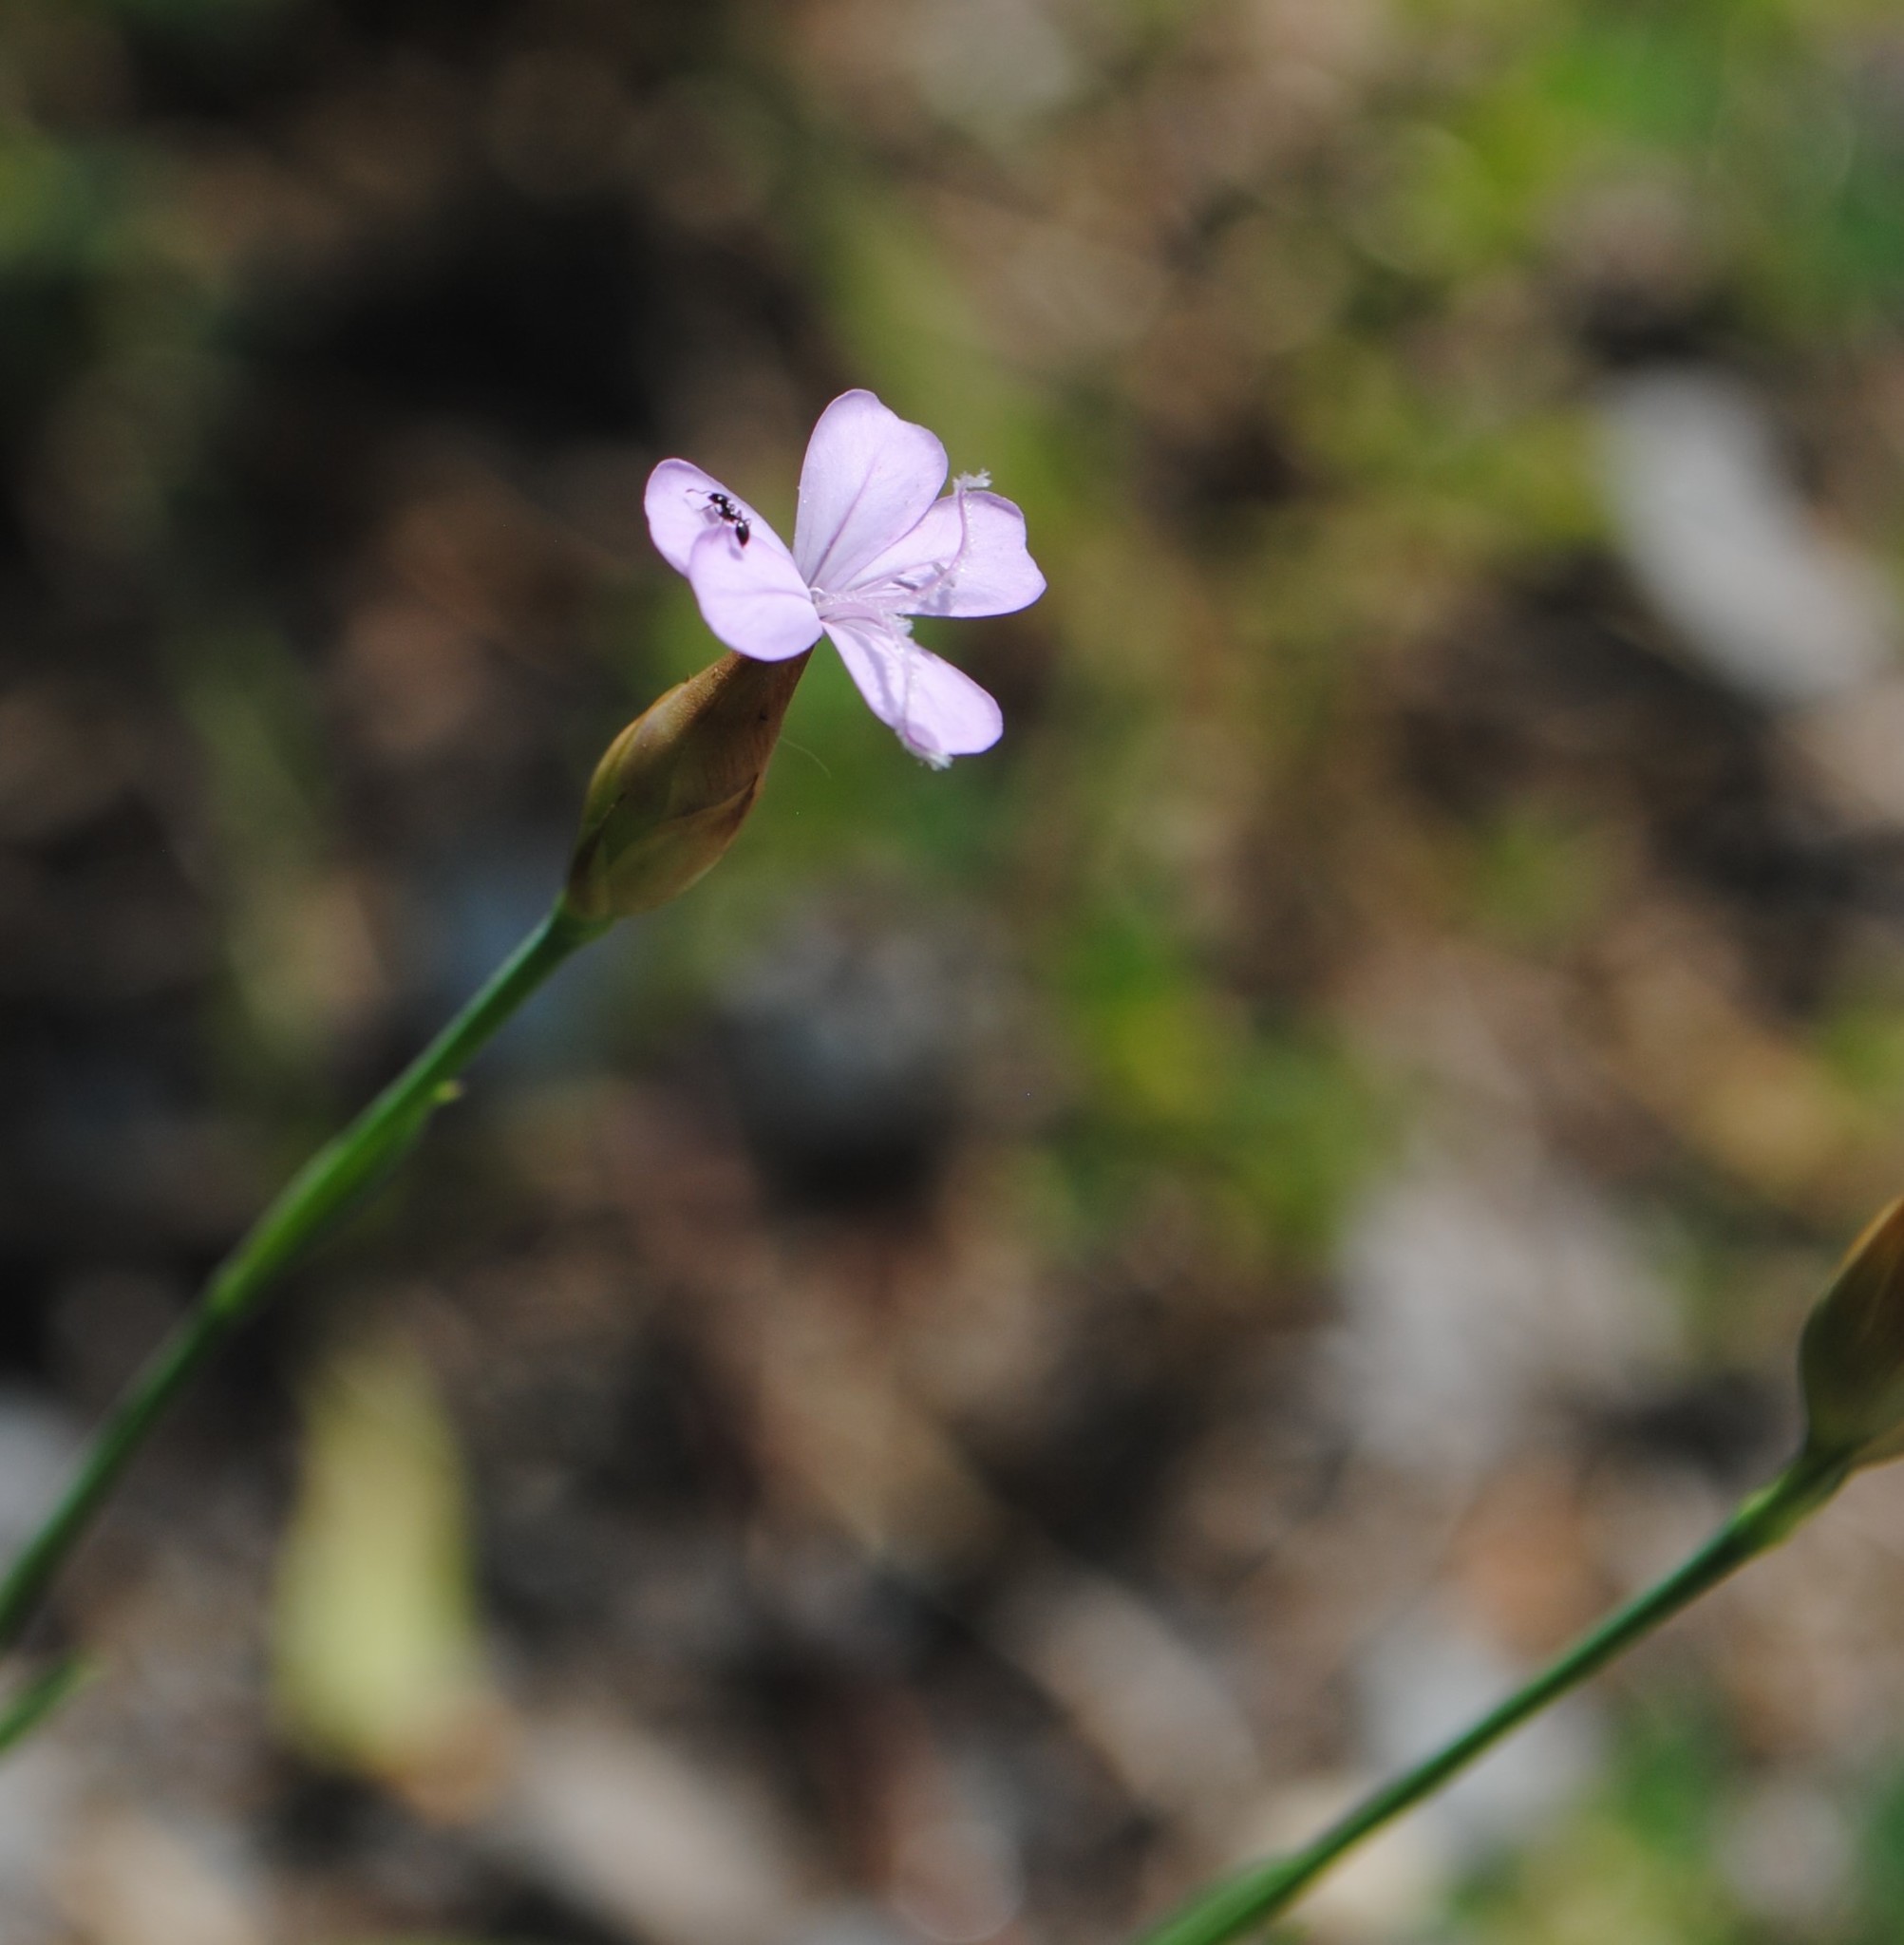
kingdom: Plantae
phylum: Tracheophyta
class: Magnoliopsida
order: Caryophyllales
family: Caryophyllaceae
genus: Petrorhagia
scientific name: Petrorhagia prolifera
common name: Proliferous pink
